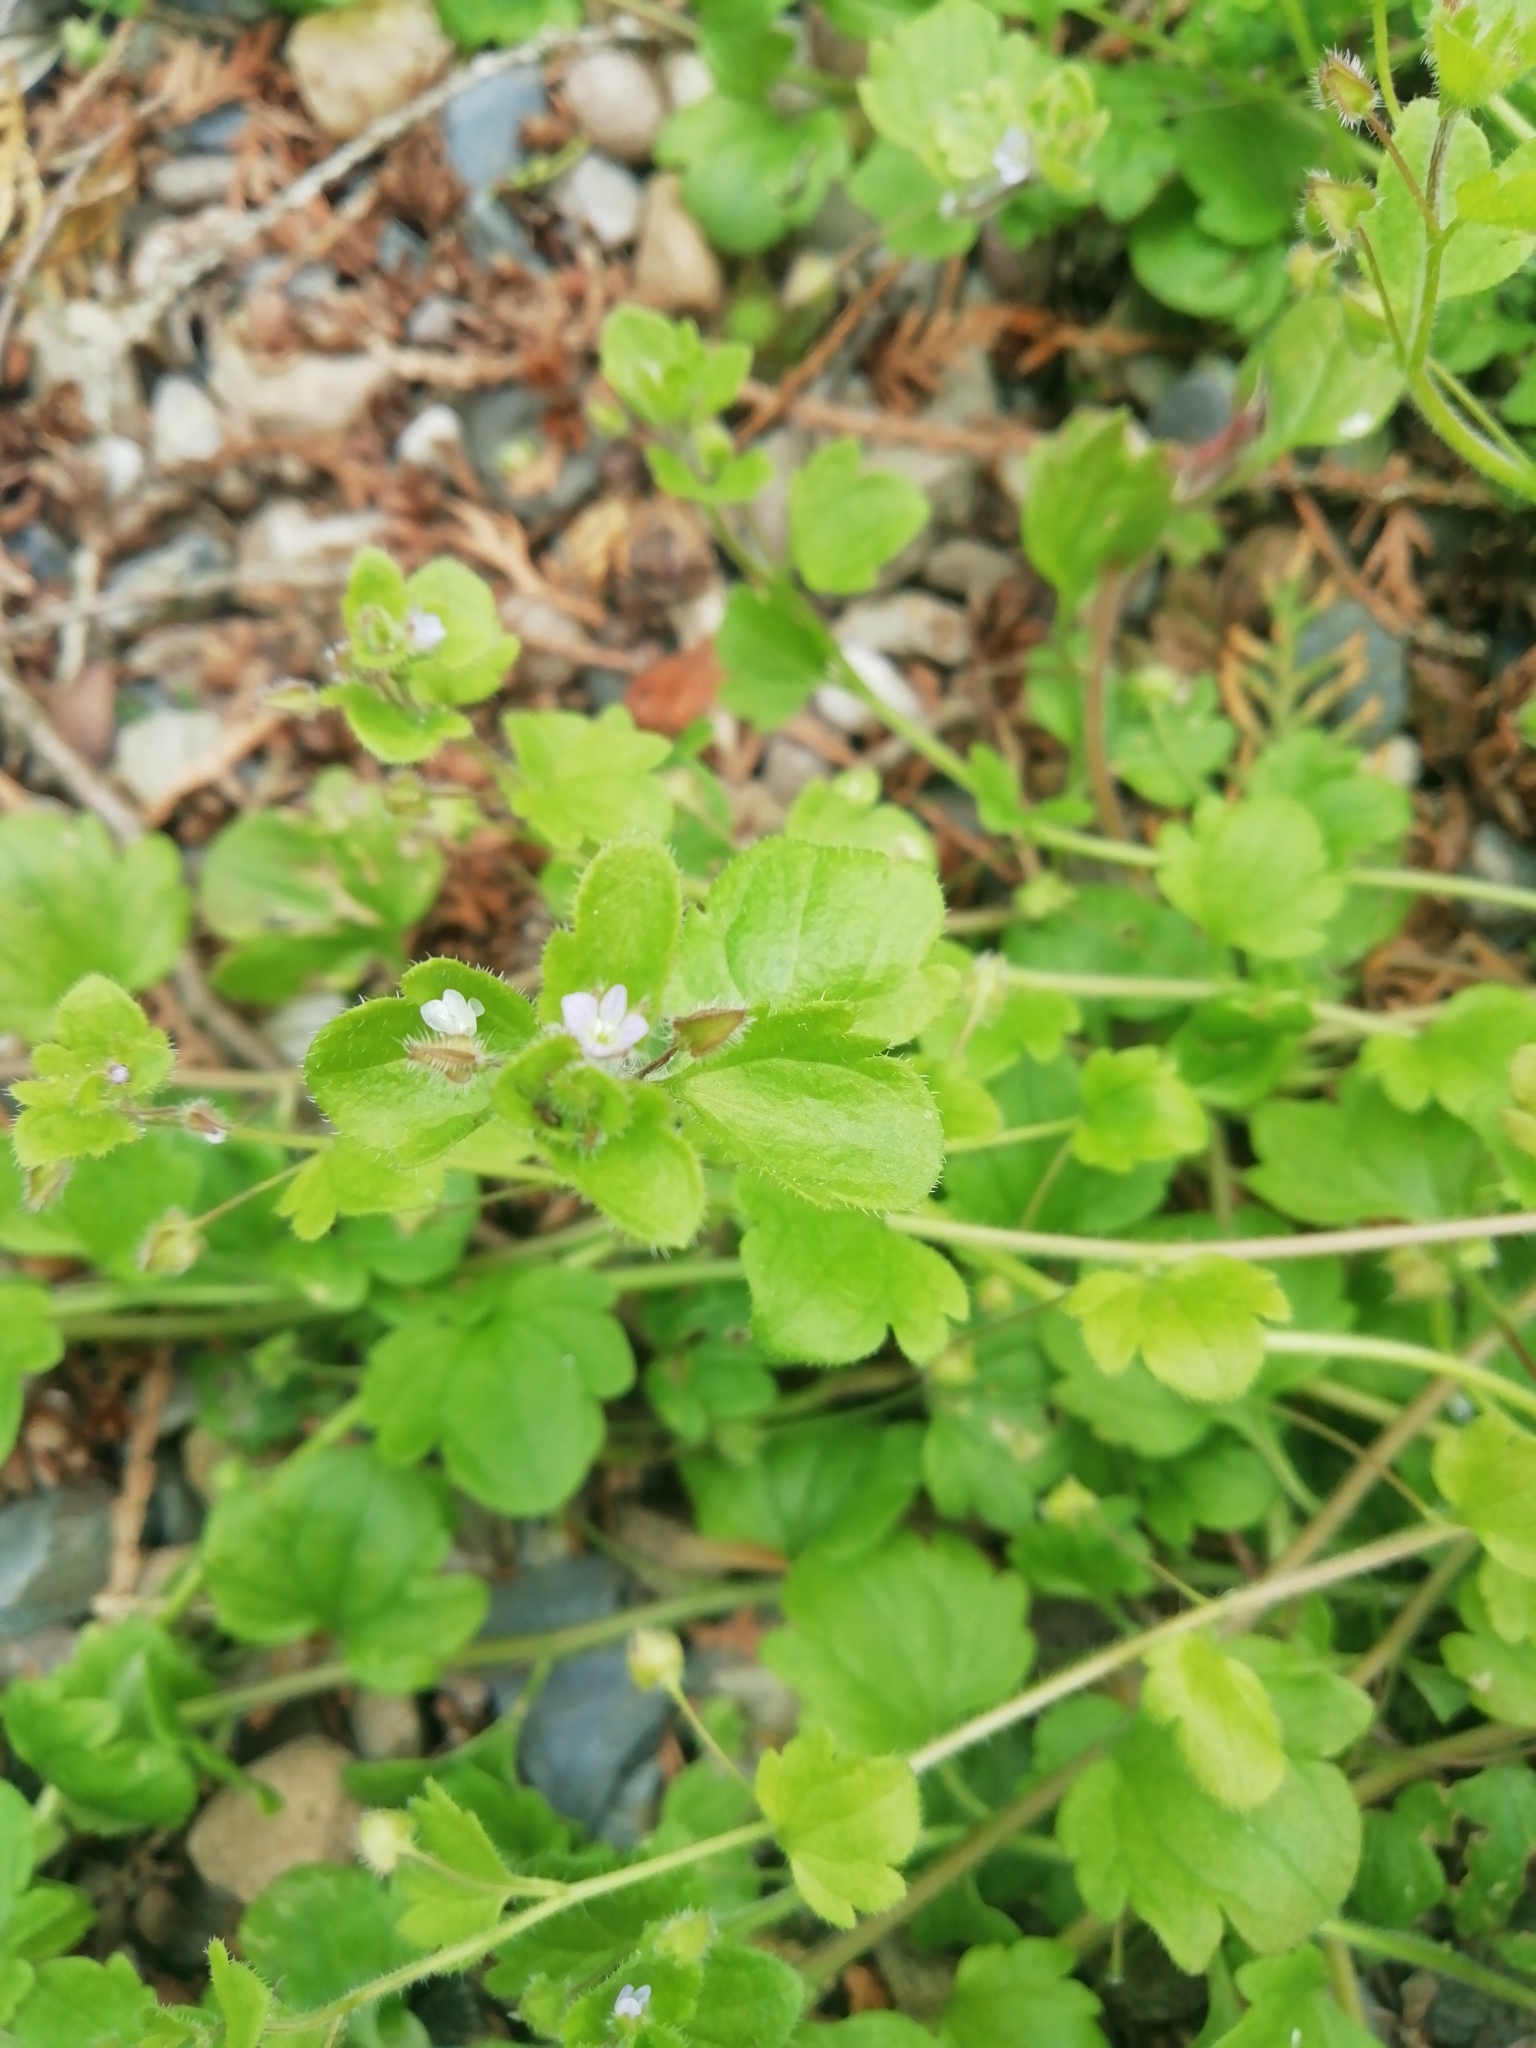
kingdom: Plantae
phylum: Tracheophyta
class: Magnoliopsida
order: Lamiales
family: Plantaginaceae
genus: Veronica
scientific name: Veronica sublobata
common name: False ivy-leaved speedwell
